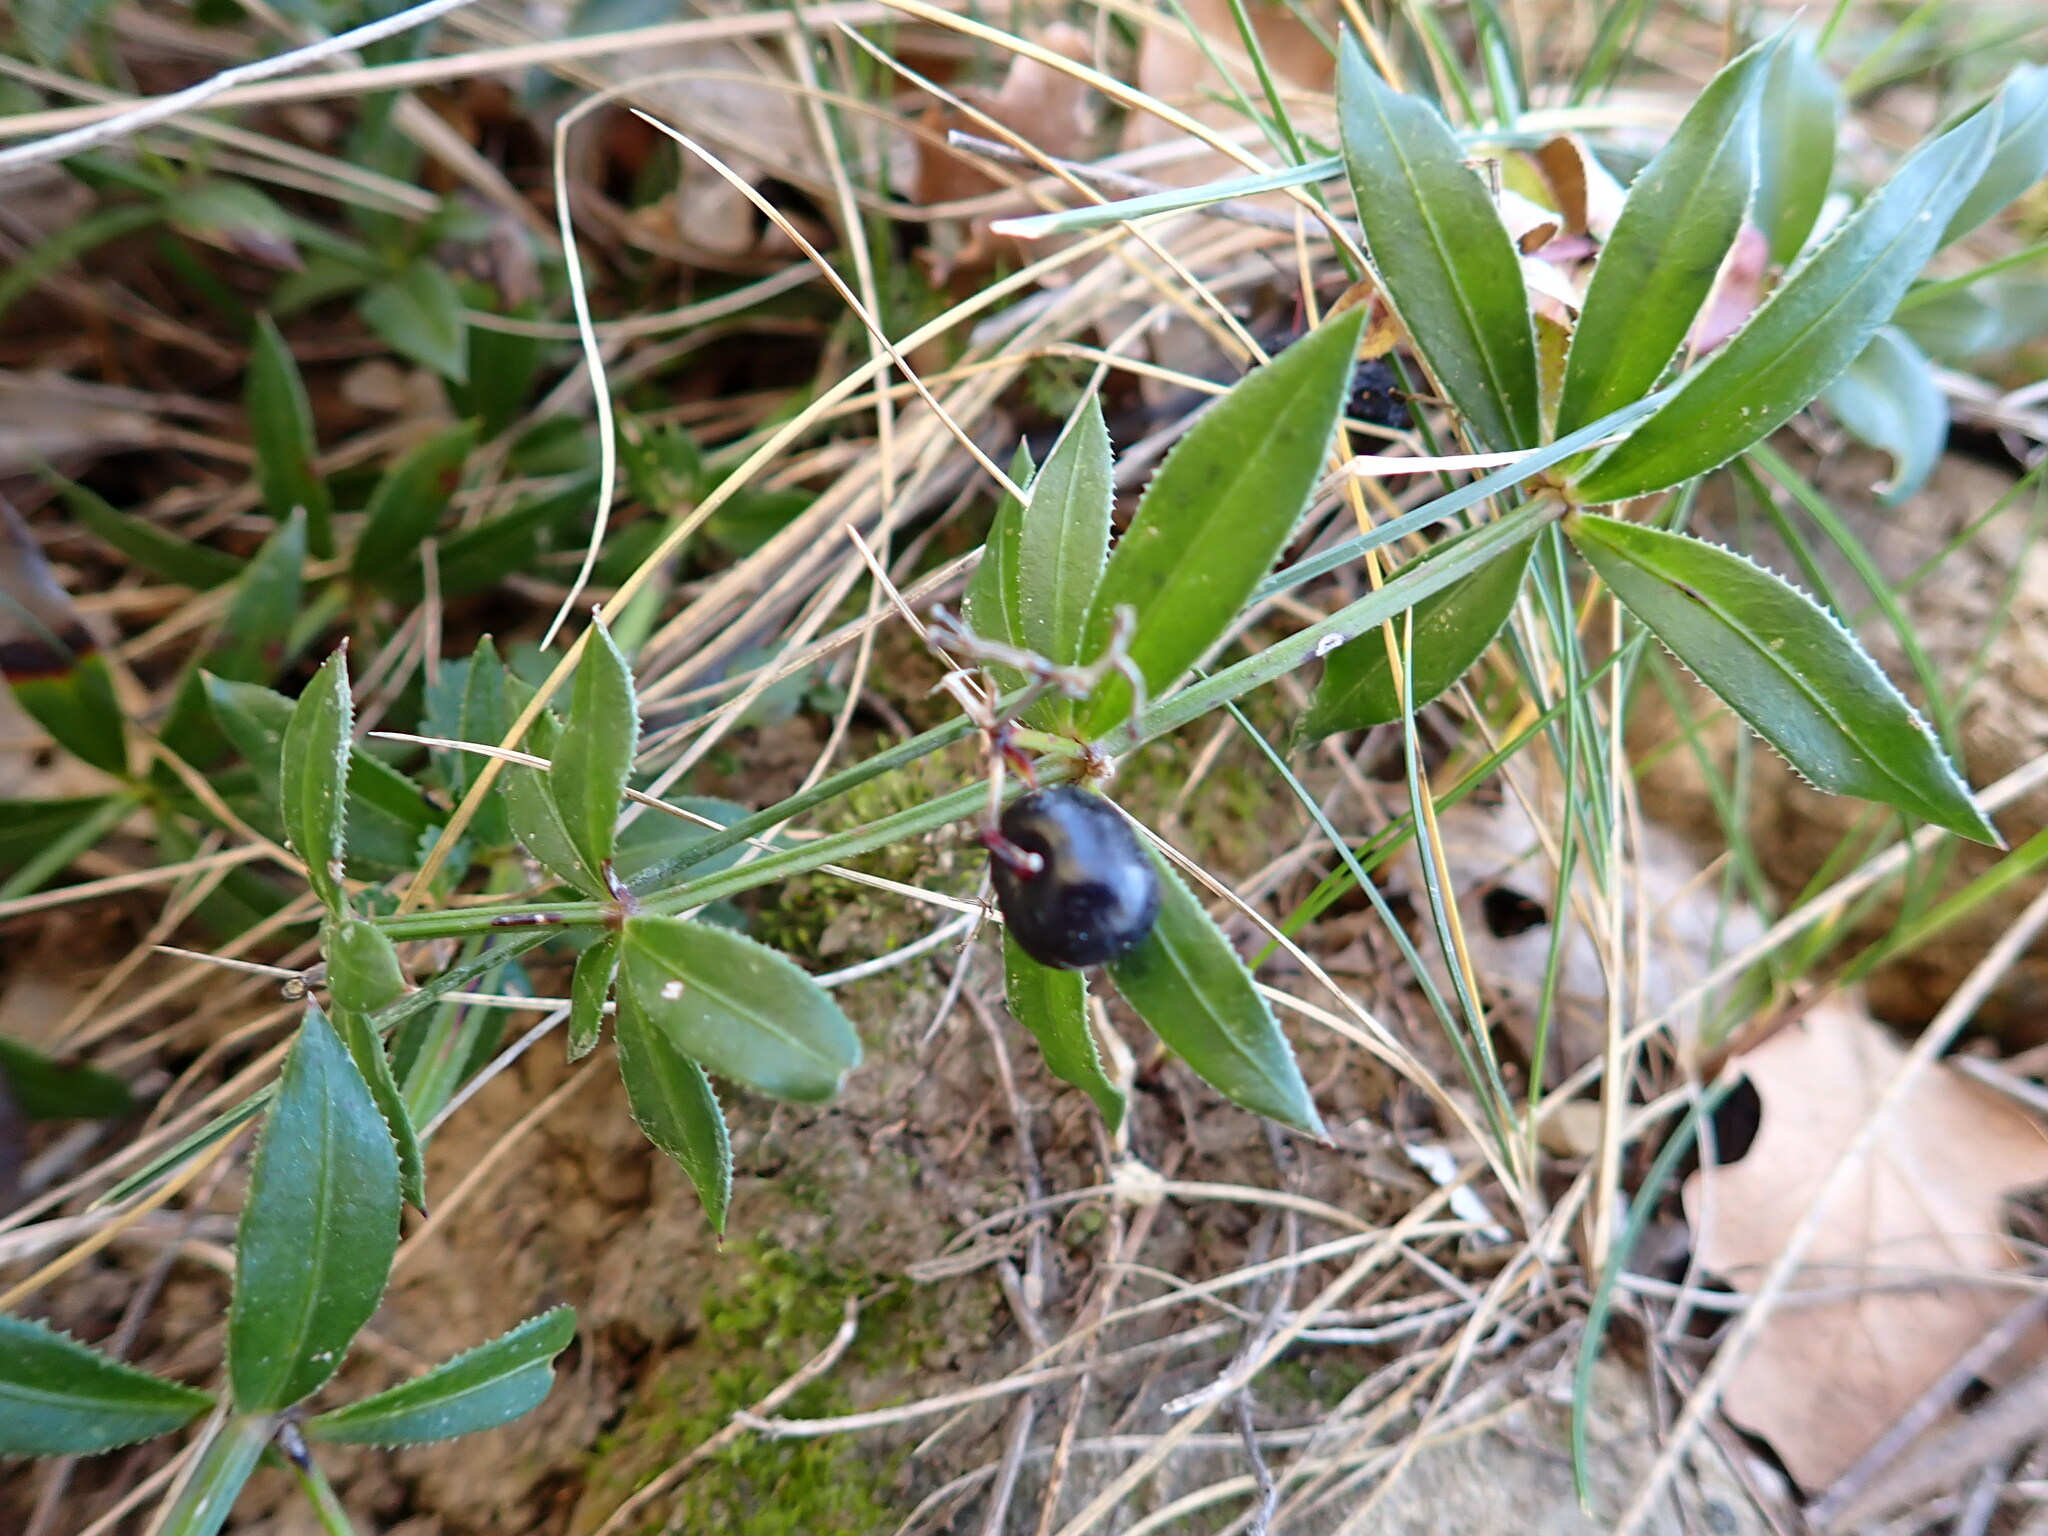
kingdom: Plantae
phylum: Tracheophyta
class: Magnoliopsida
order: Gentianales
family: Rubiaceae
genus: Rubia
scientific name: Rubia peregrina
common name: Wild madder
